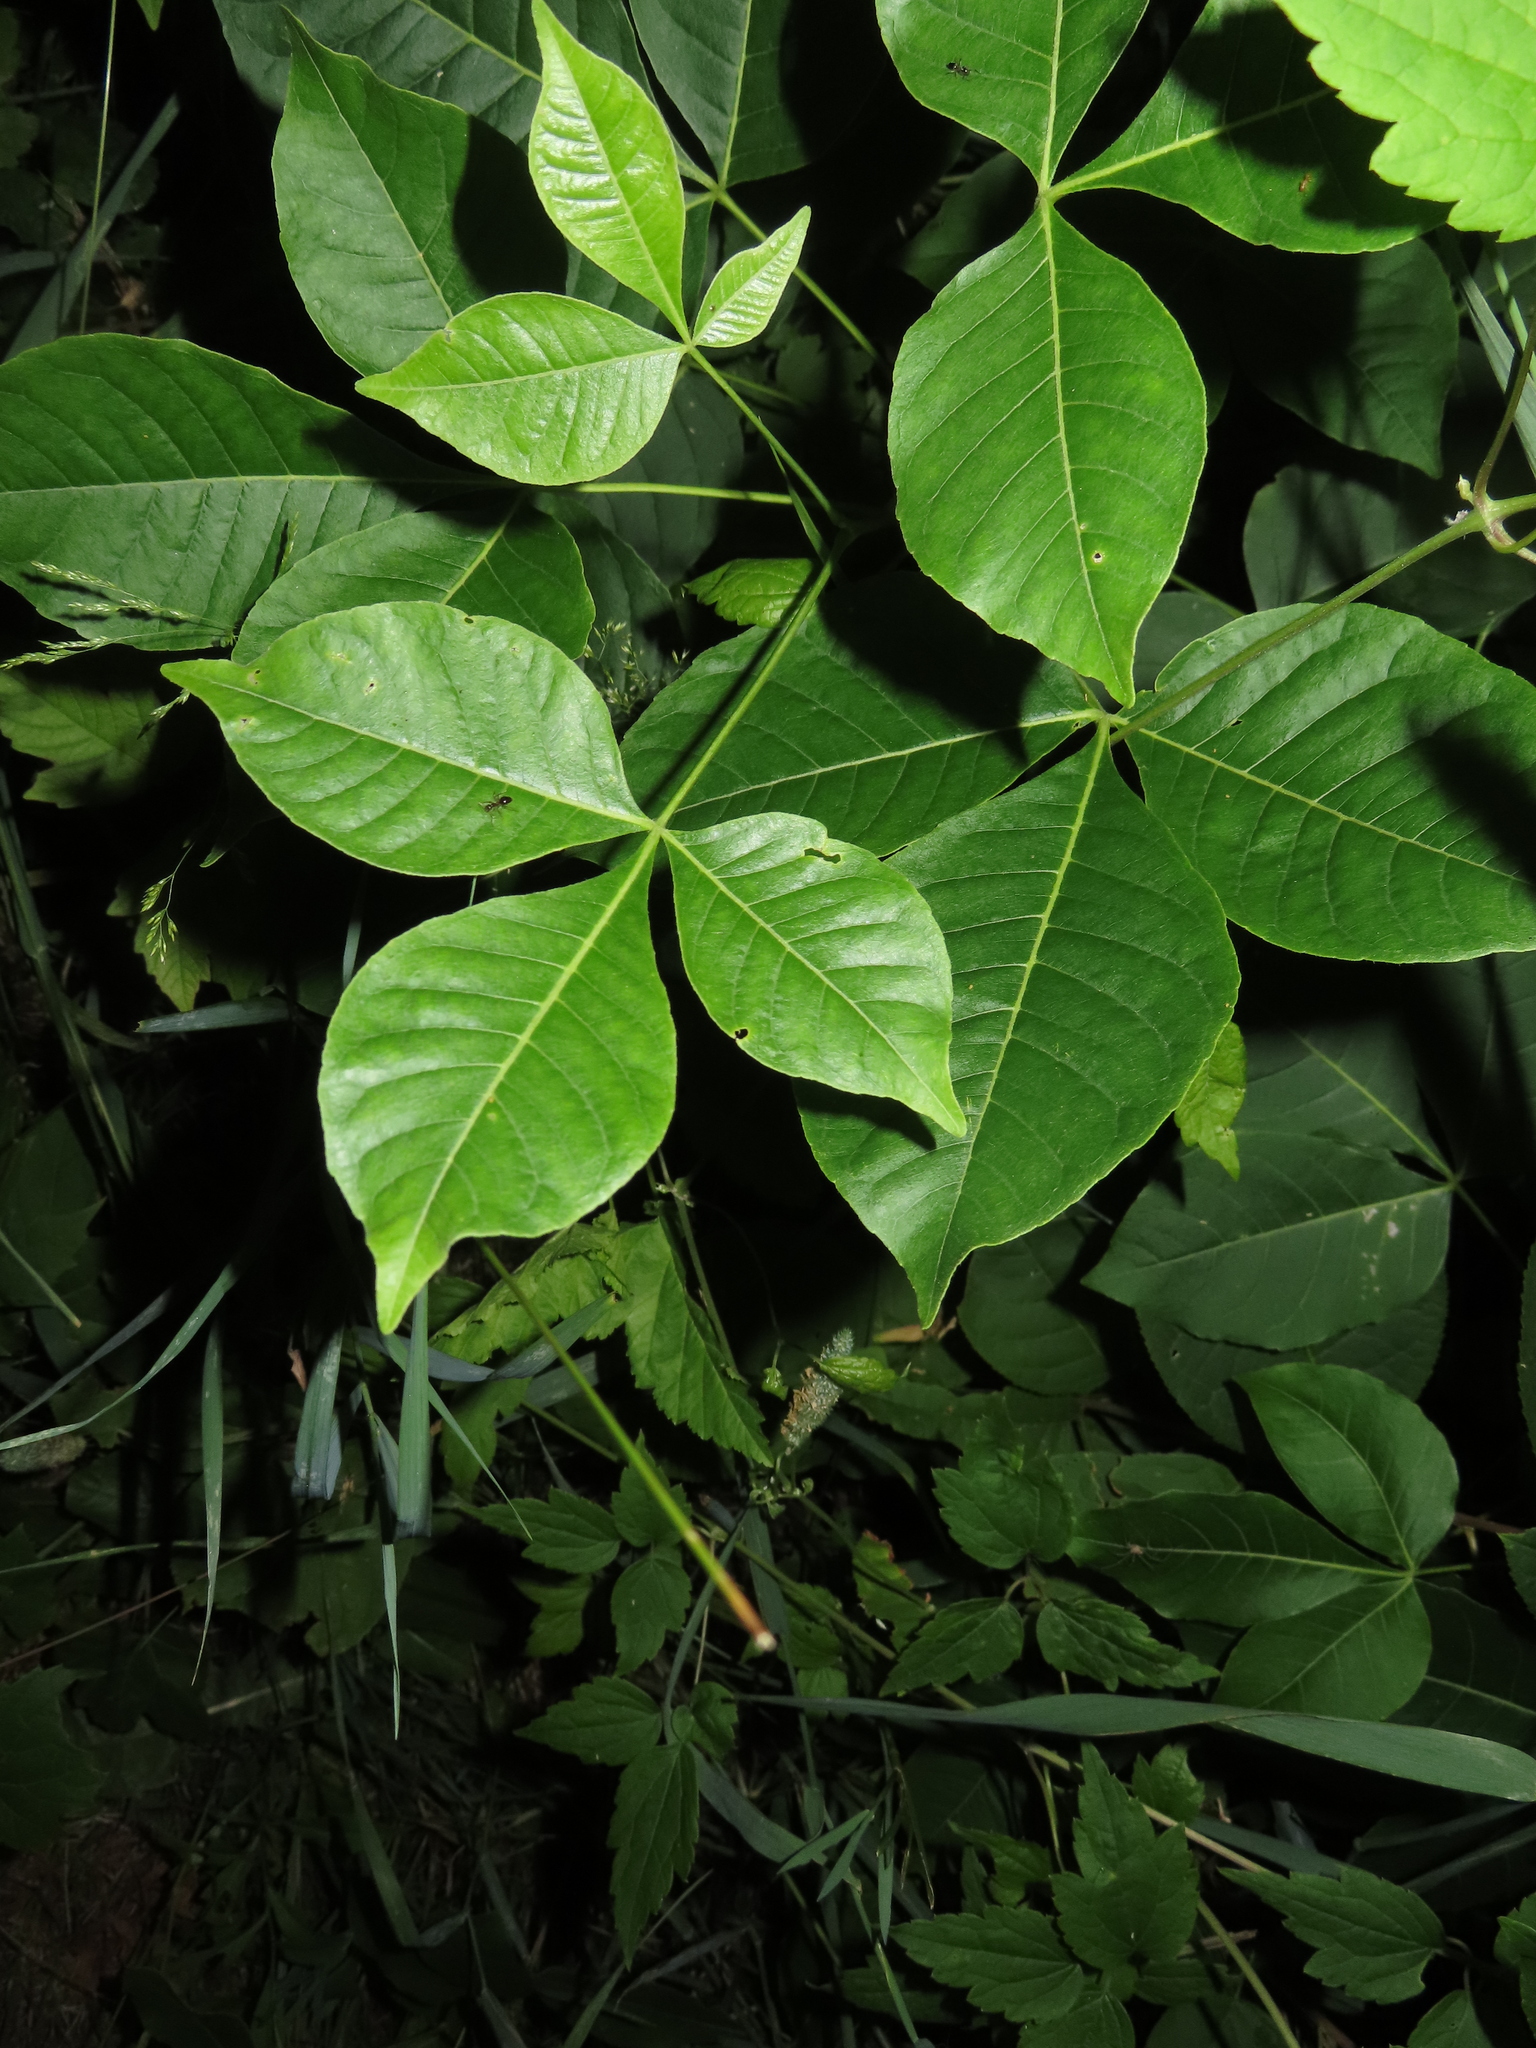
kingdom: Plantae
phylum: Tracheophyta
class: Magnoliopsida
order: Sapindales
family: Rutaceae
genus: Ptelea
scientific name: Ptelea trifoliata
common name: Common hop-tree
